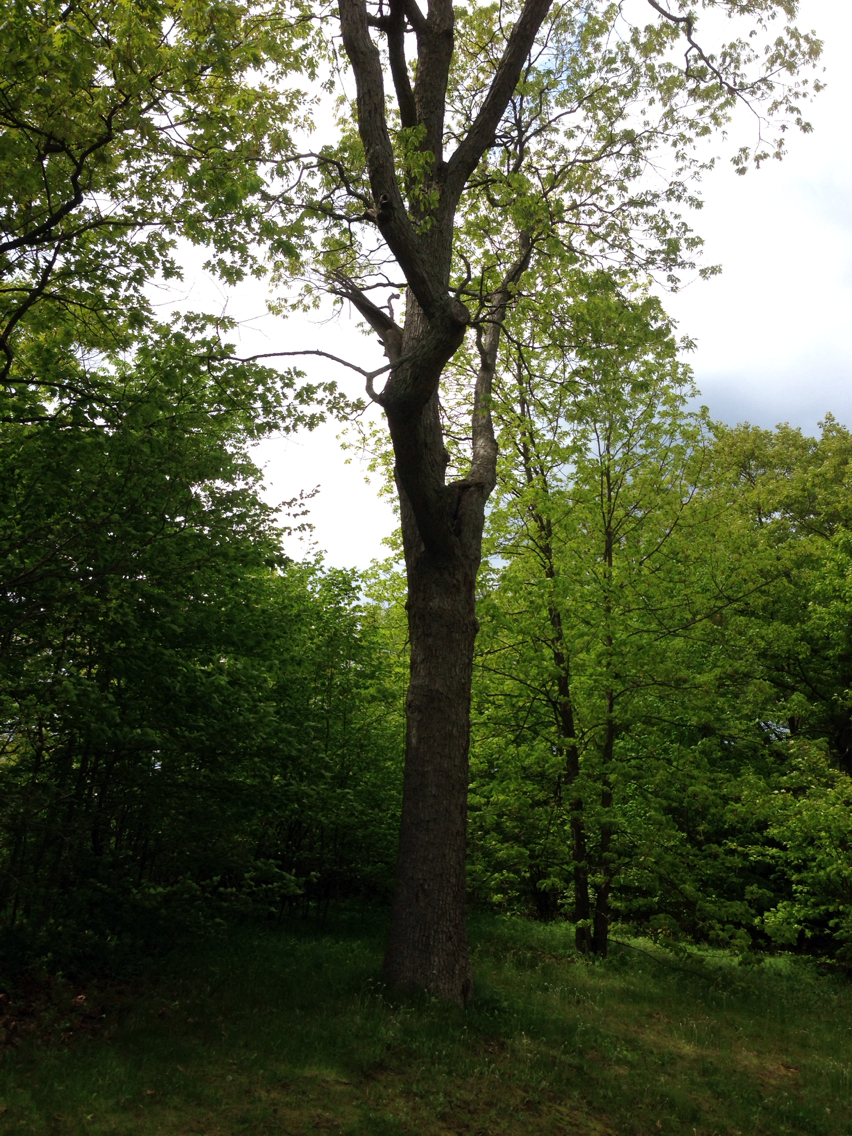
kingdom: Plantae
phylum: Tracheophyta
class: Magnoliopsida
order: Fagales
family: Fagaceae
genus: Quercus
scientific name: Quercus alba
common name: White oak
